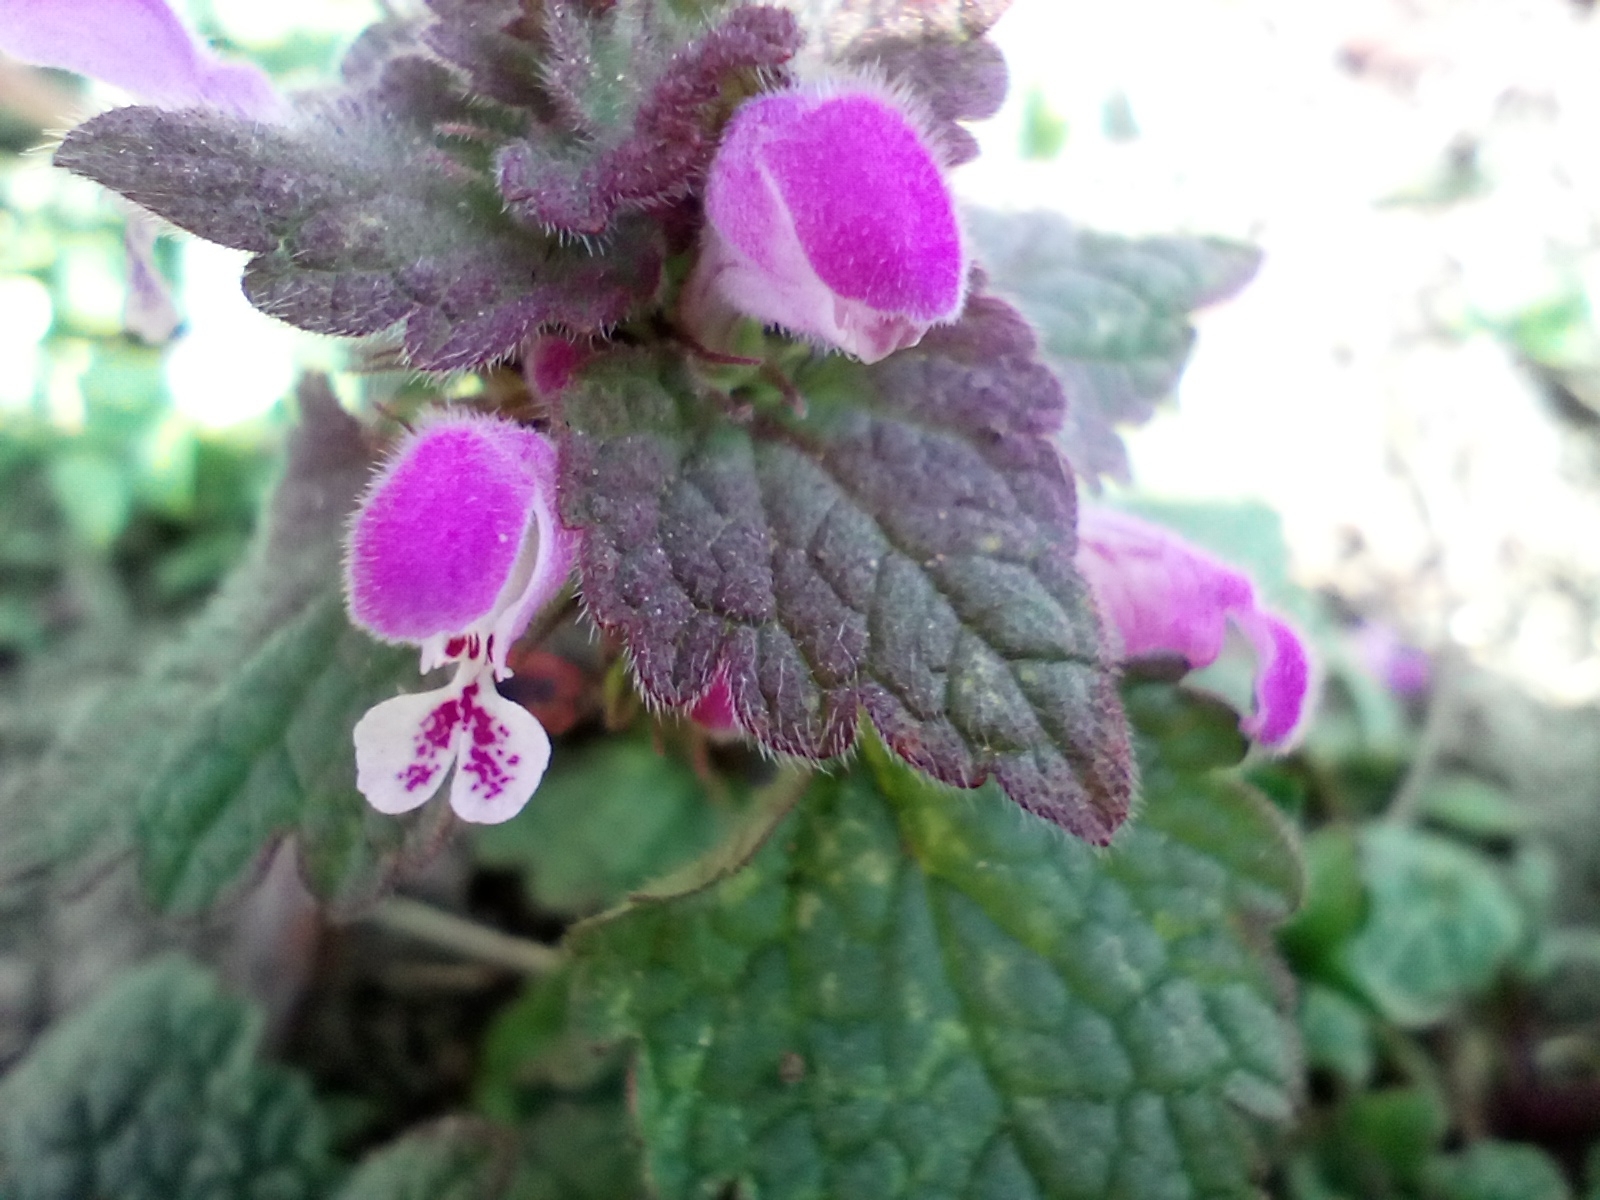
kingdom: Plantae
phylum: Tracheophyta
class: Magnoliopsida
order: Lamiales
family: Lamiaceae
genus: Lamium
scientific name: Lamium purpureum
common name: Red dead-nettle
